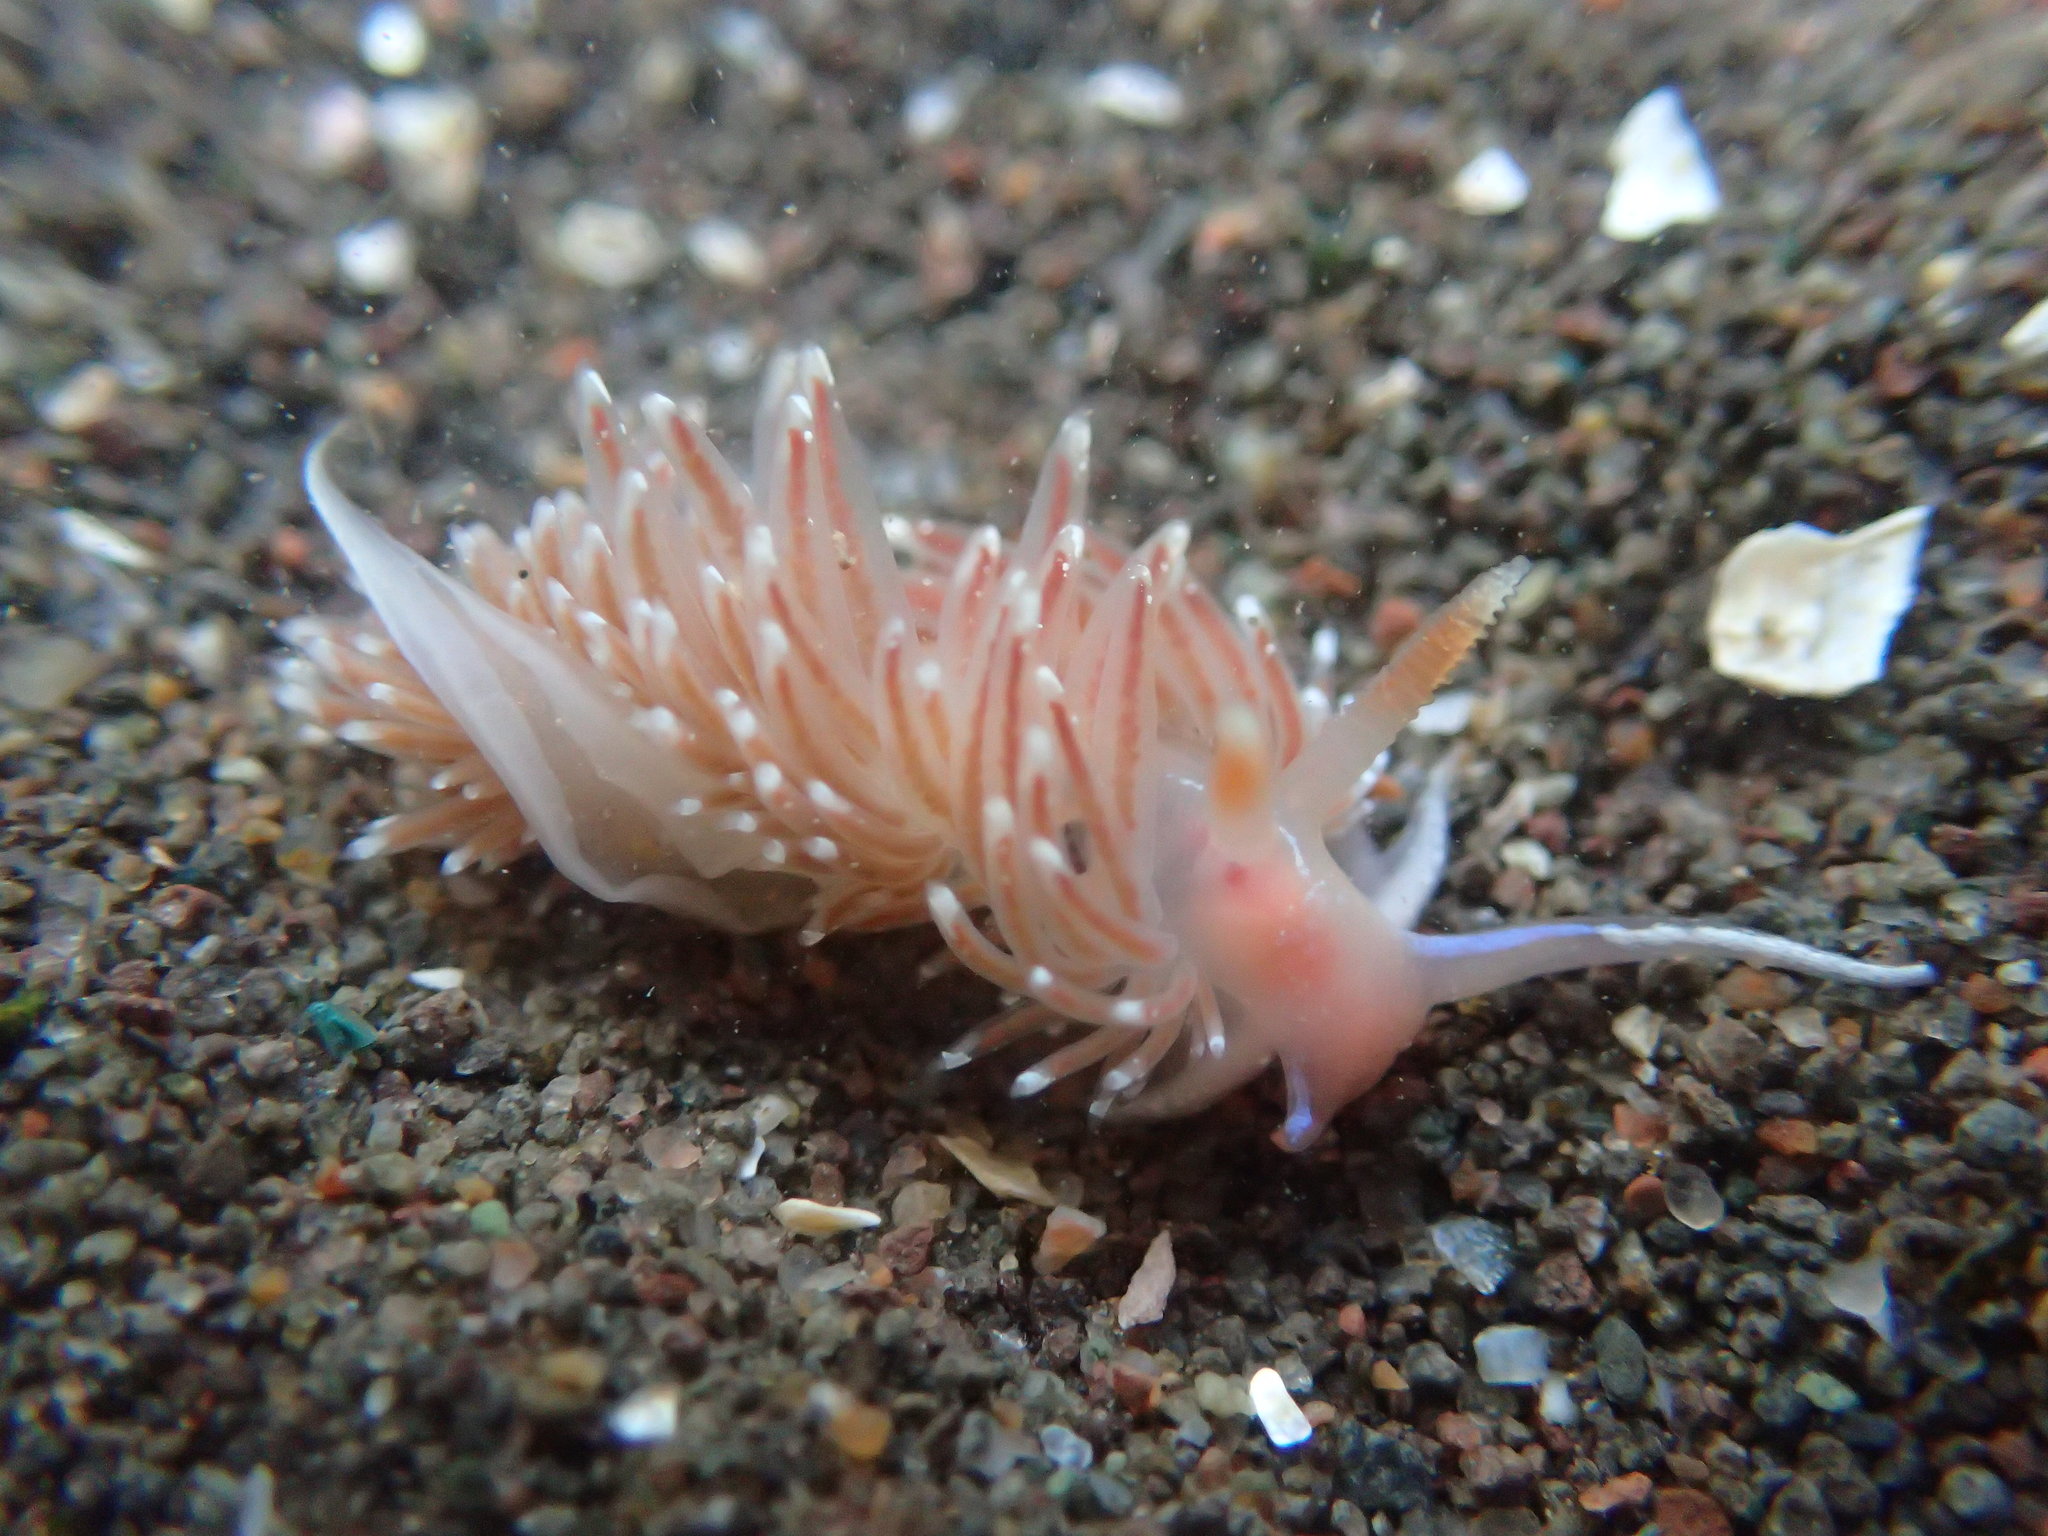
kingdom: Animalia
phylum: Mollusca
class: Gastropoda
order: Nudibranchia
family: Facelinidae
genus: Facelina
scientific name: Facelina bostoniensis
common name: Boston facelina
